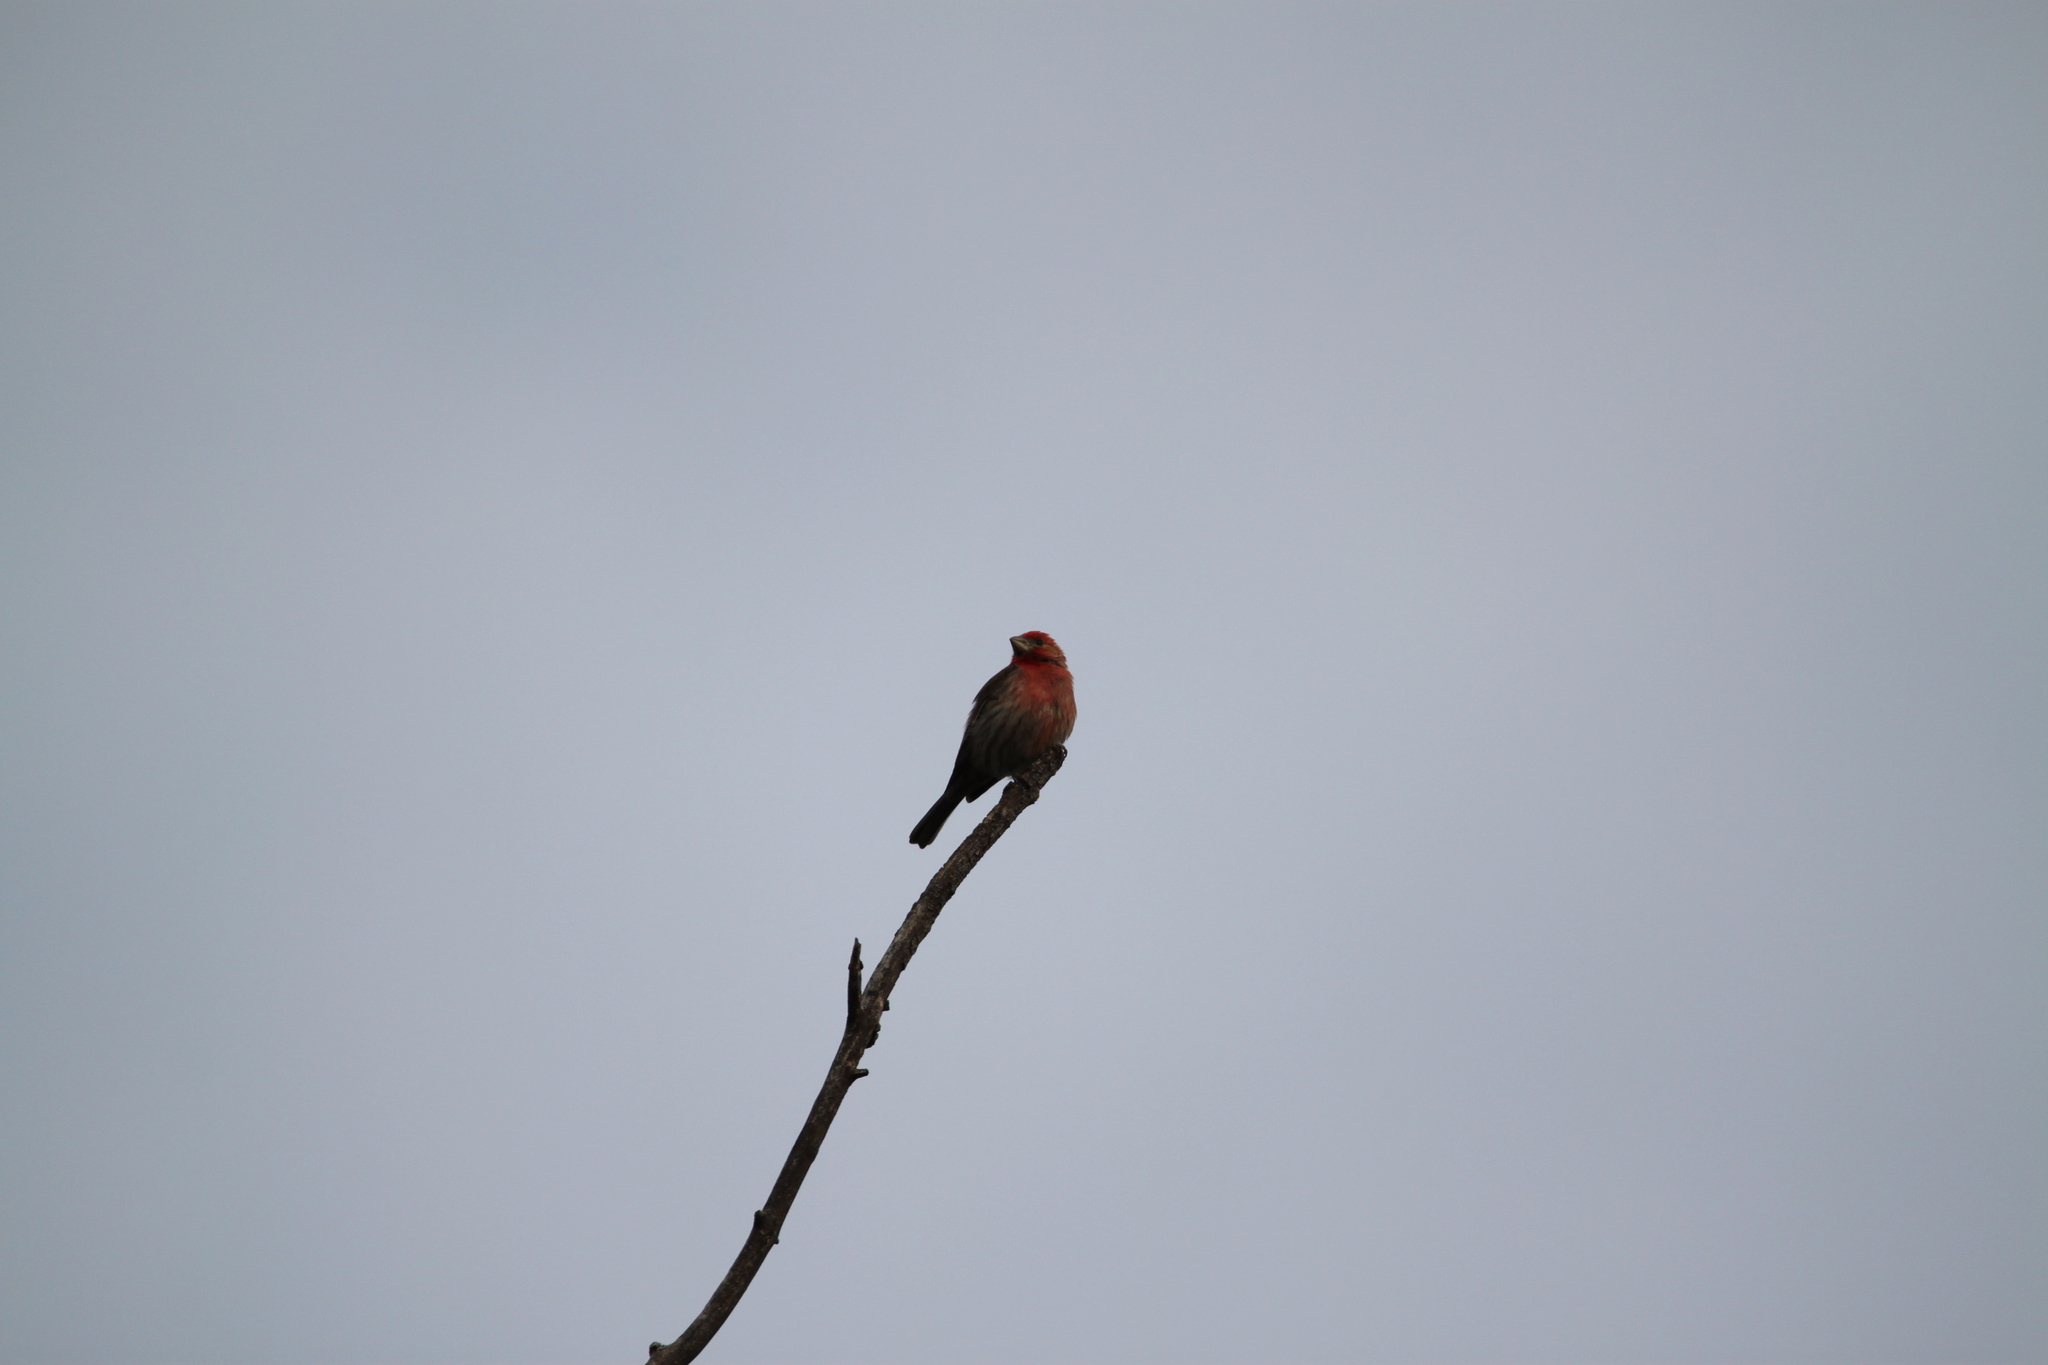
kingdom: Animalia
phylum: Chordata
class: Aves
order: Passeriformes
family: Fringillidae
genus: Haemorhous
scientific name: Haemorhous mexicanus
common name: House finch
